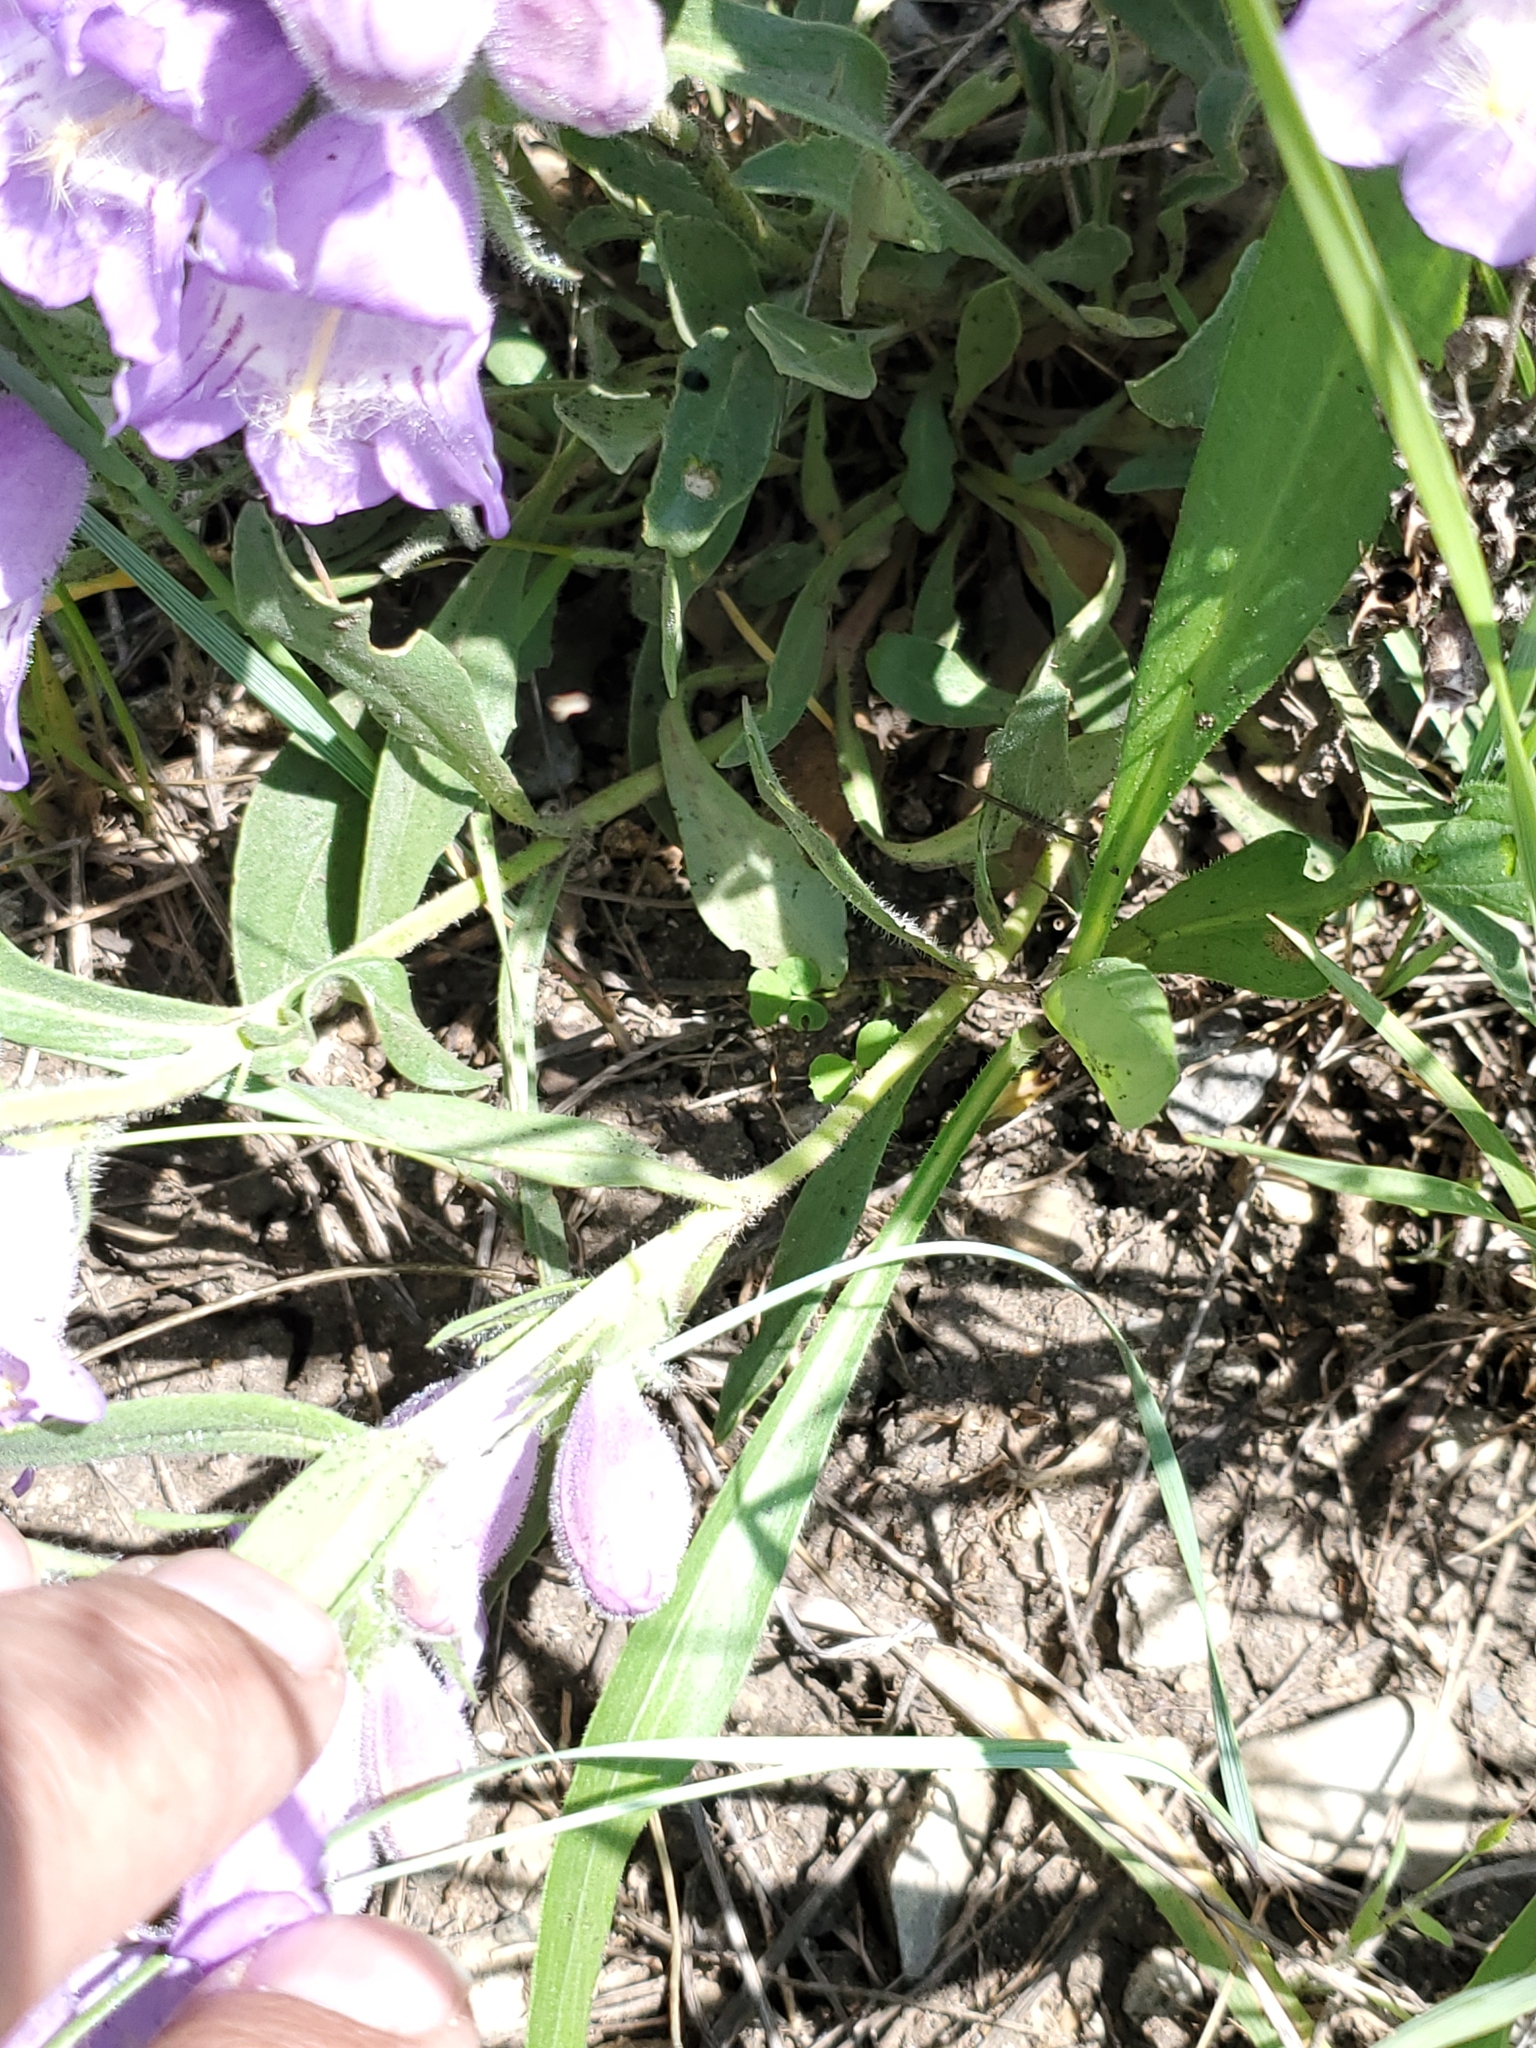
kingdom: Plantae
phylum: Tracheophyta
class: Magnoliopsida
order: Lamiales
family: Plantaginaceae
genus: Penstemon
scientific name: Penstemon eriantherus
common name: Crested beardtongue
